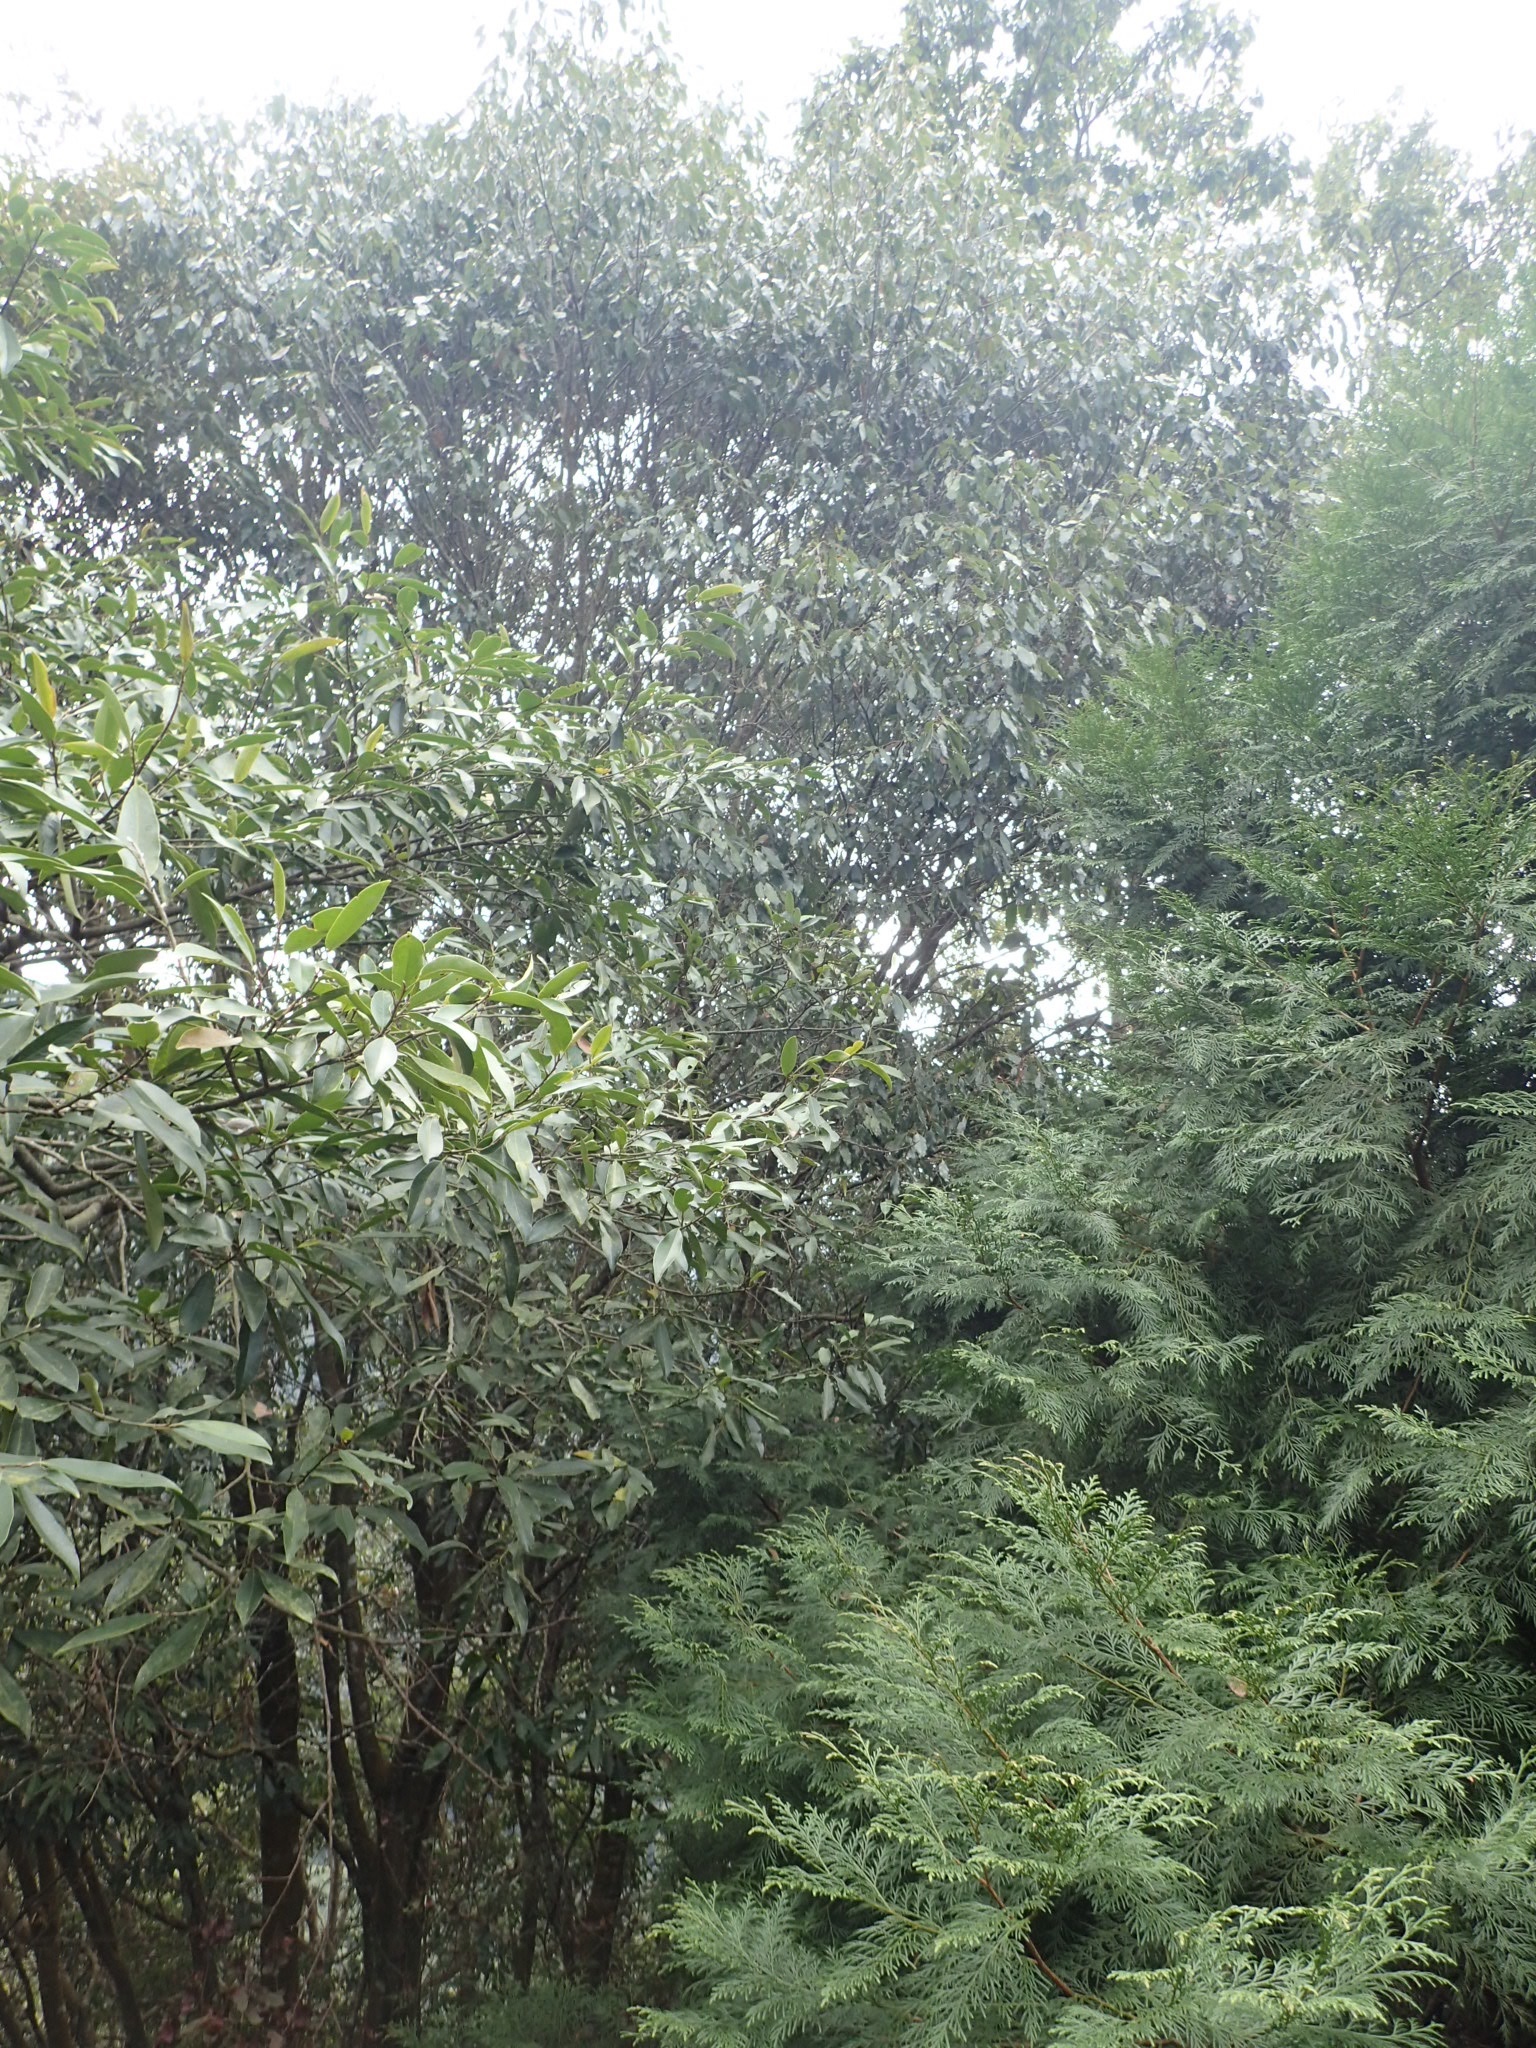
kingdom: Plantae
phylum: Tracheophyta
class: Magnoliopsida
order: Fagales
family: Fagaceae
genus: Quercus
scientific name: Quercus stenophylloides
